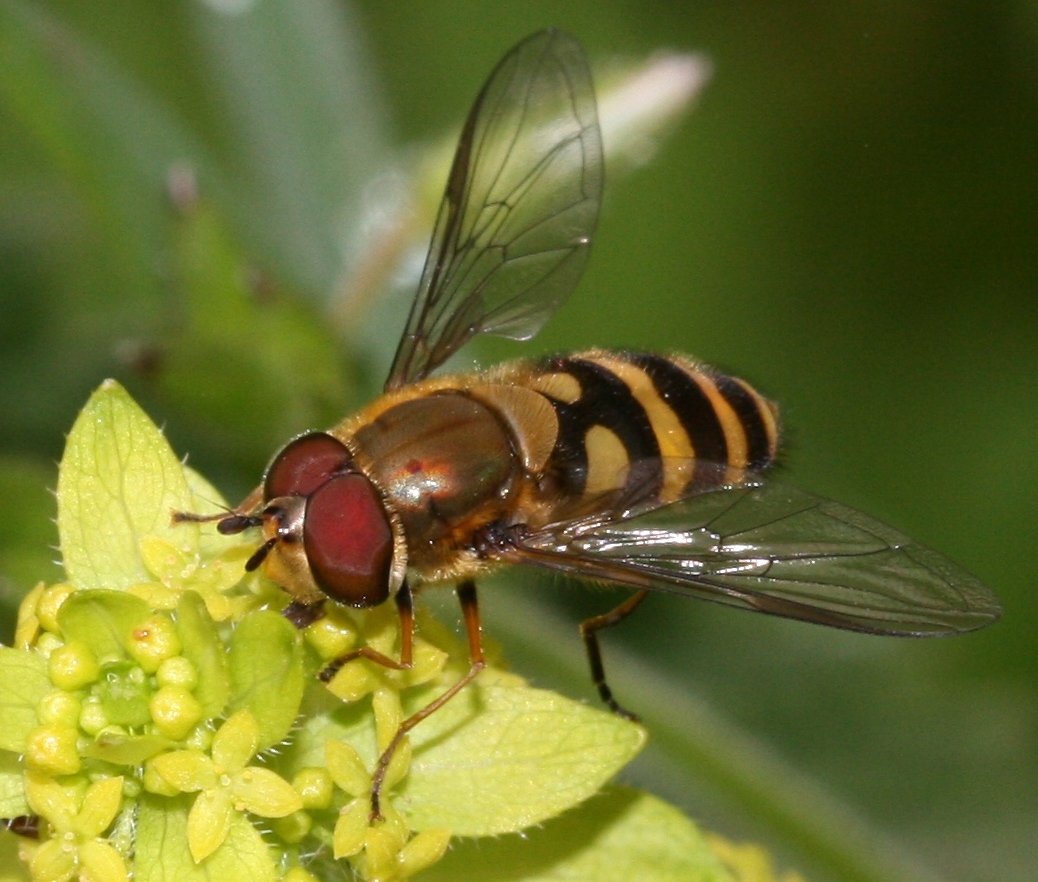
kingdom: Animalia
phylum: Arthropoda
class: Insecta
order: Diptera
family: Syrphidae
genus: Syrphus
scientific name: Syrphus torvus
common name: Hairy-eyed flower fly
